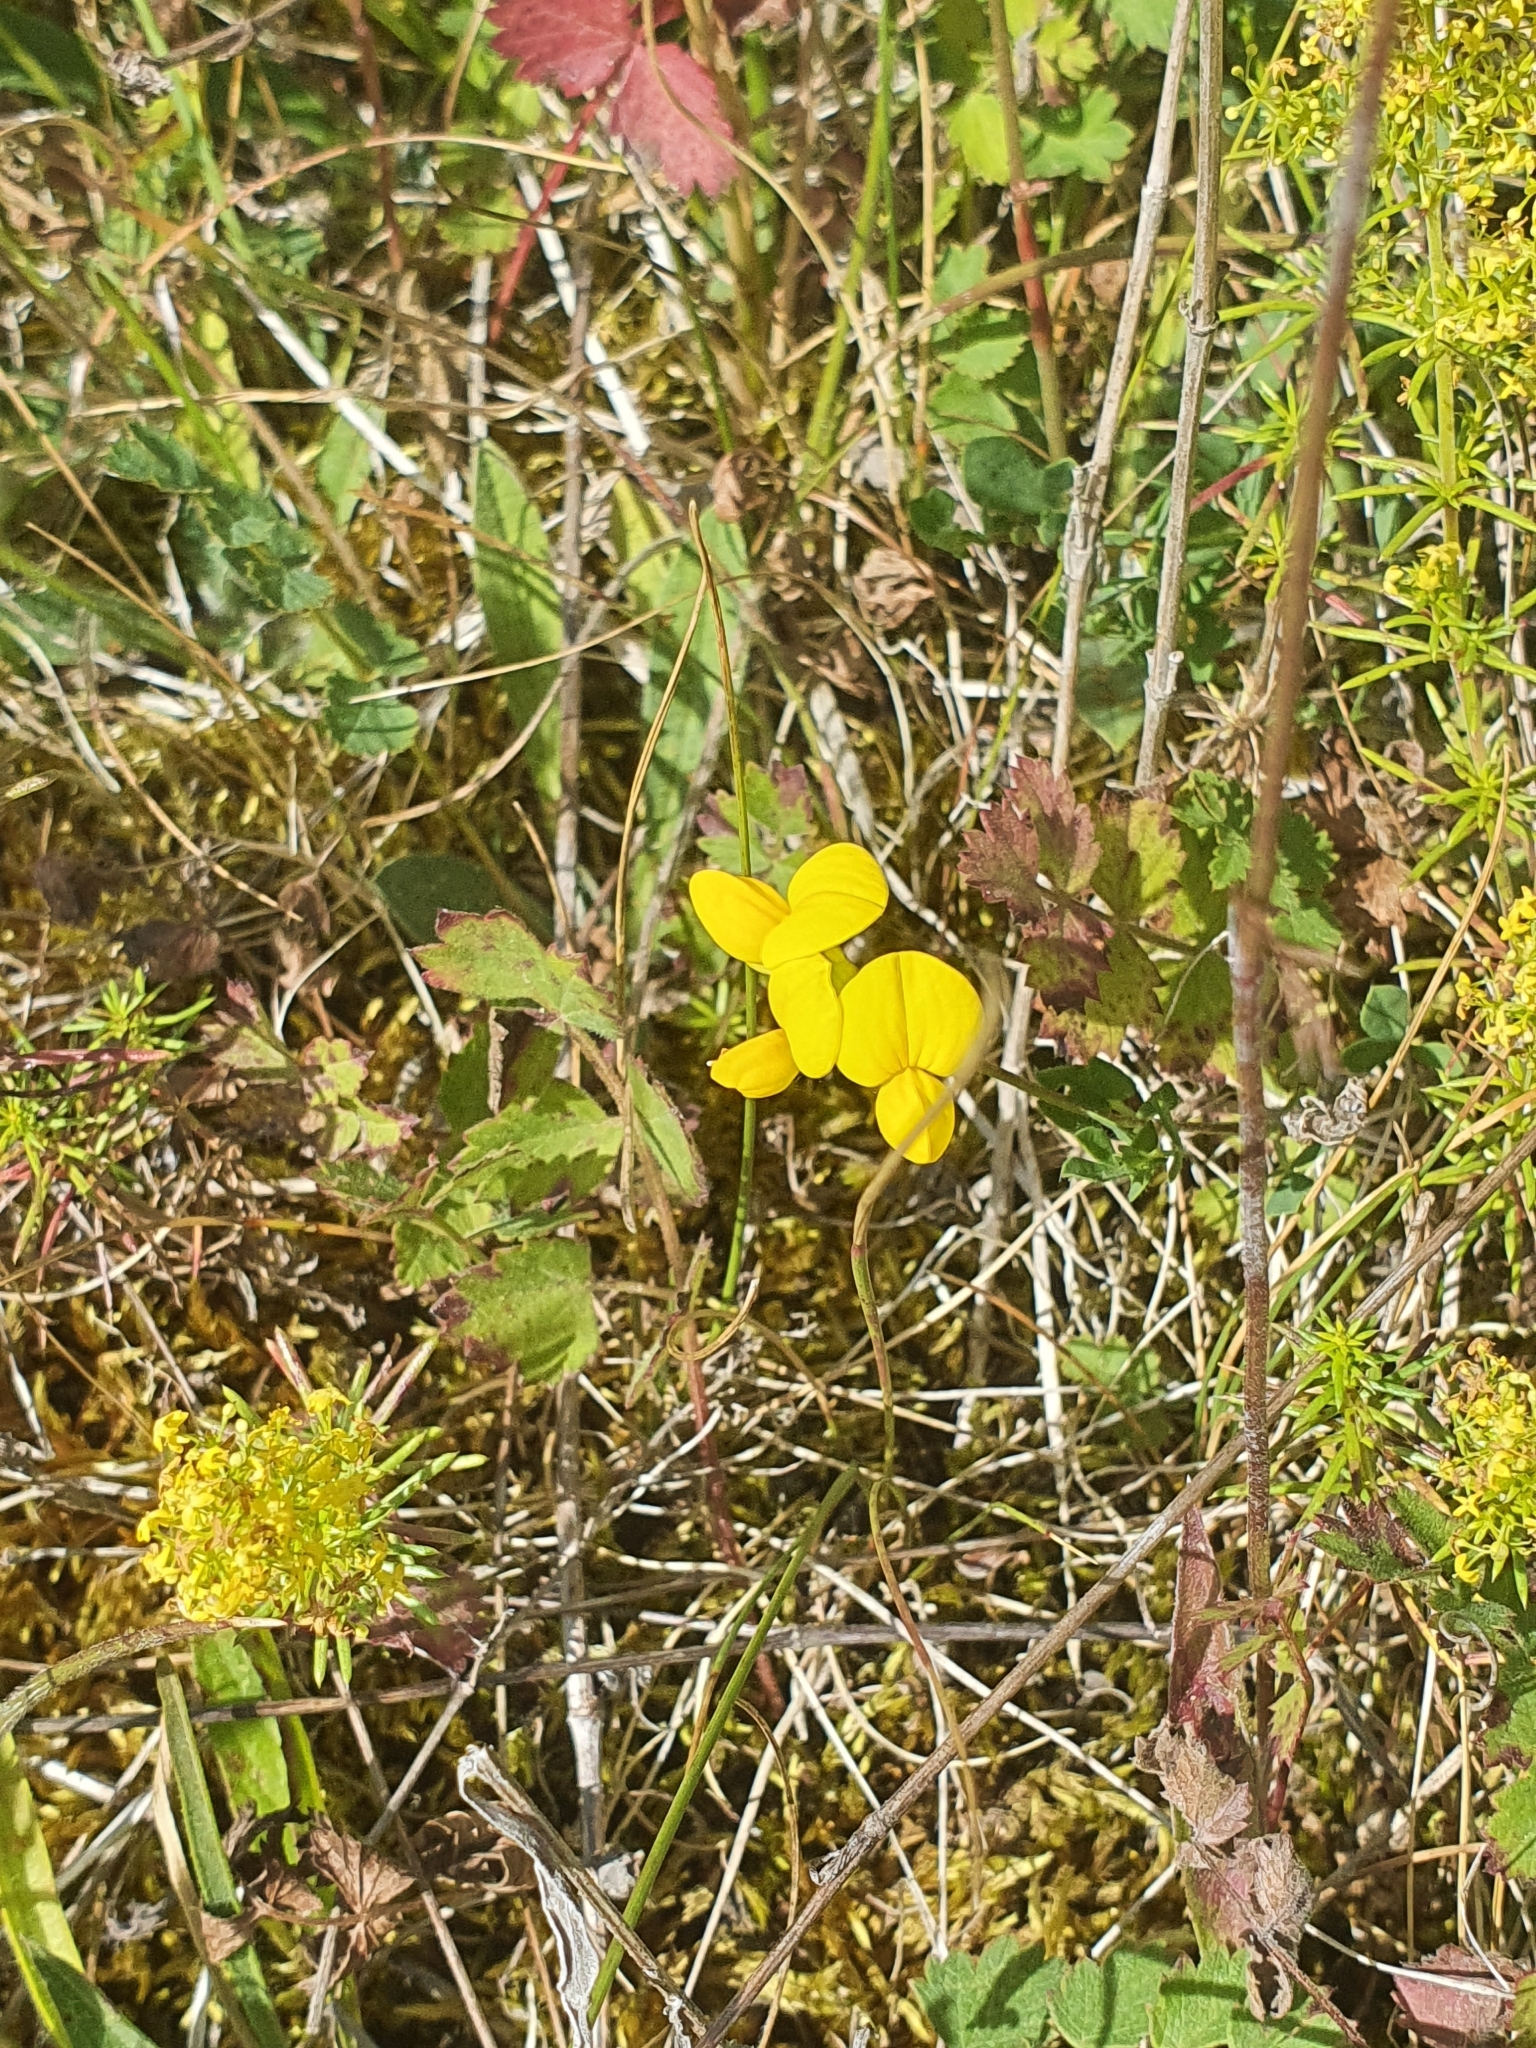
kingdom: Plantae
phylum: Tracheophyta
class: Magnoliopsida
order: Fabales
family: Fabaceae
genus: Lotus
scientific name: Lotus corniculatus
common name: Common bird's-foot-trefoil
